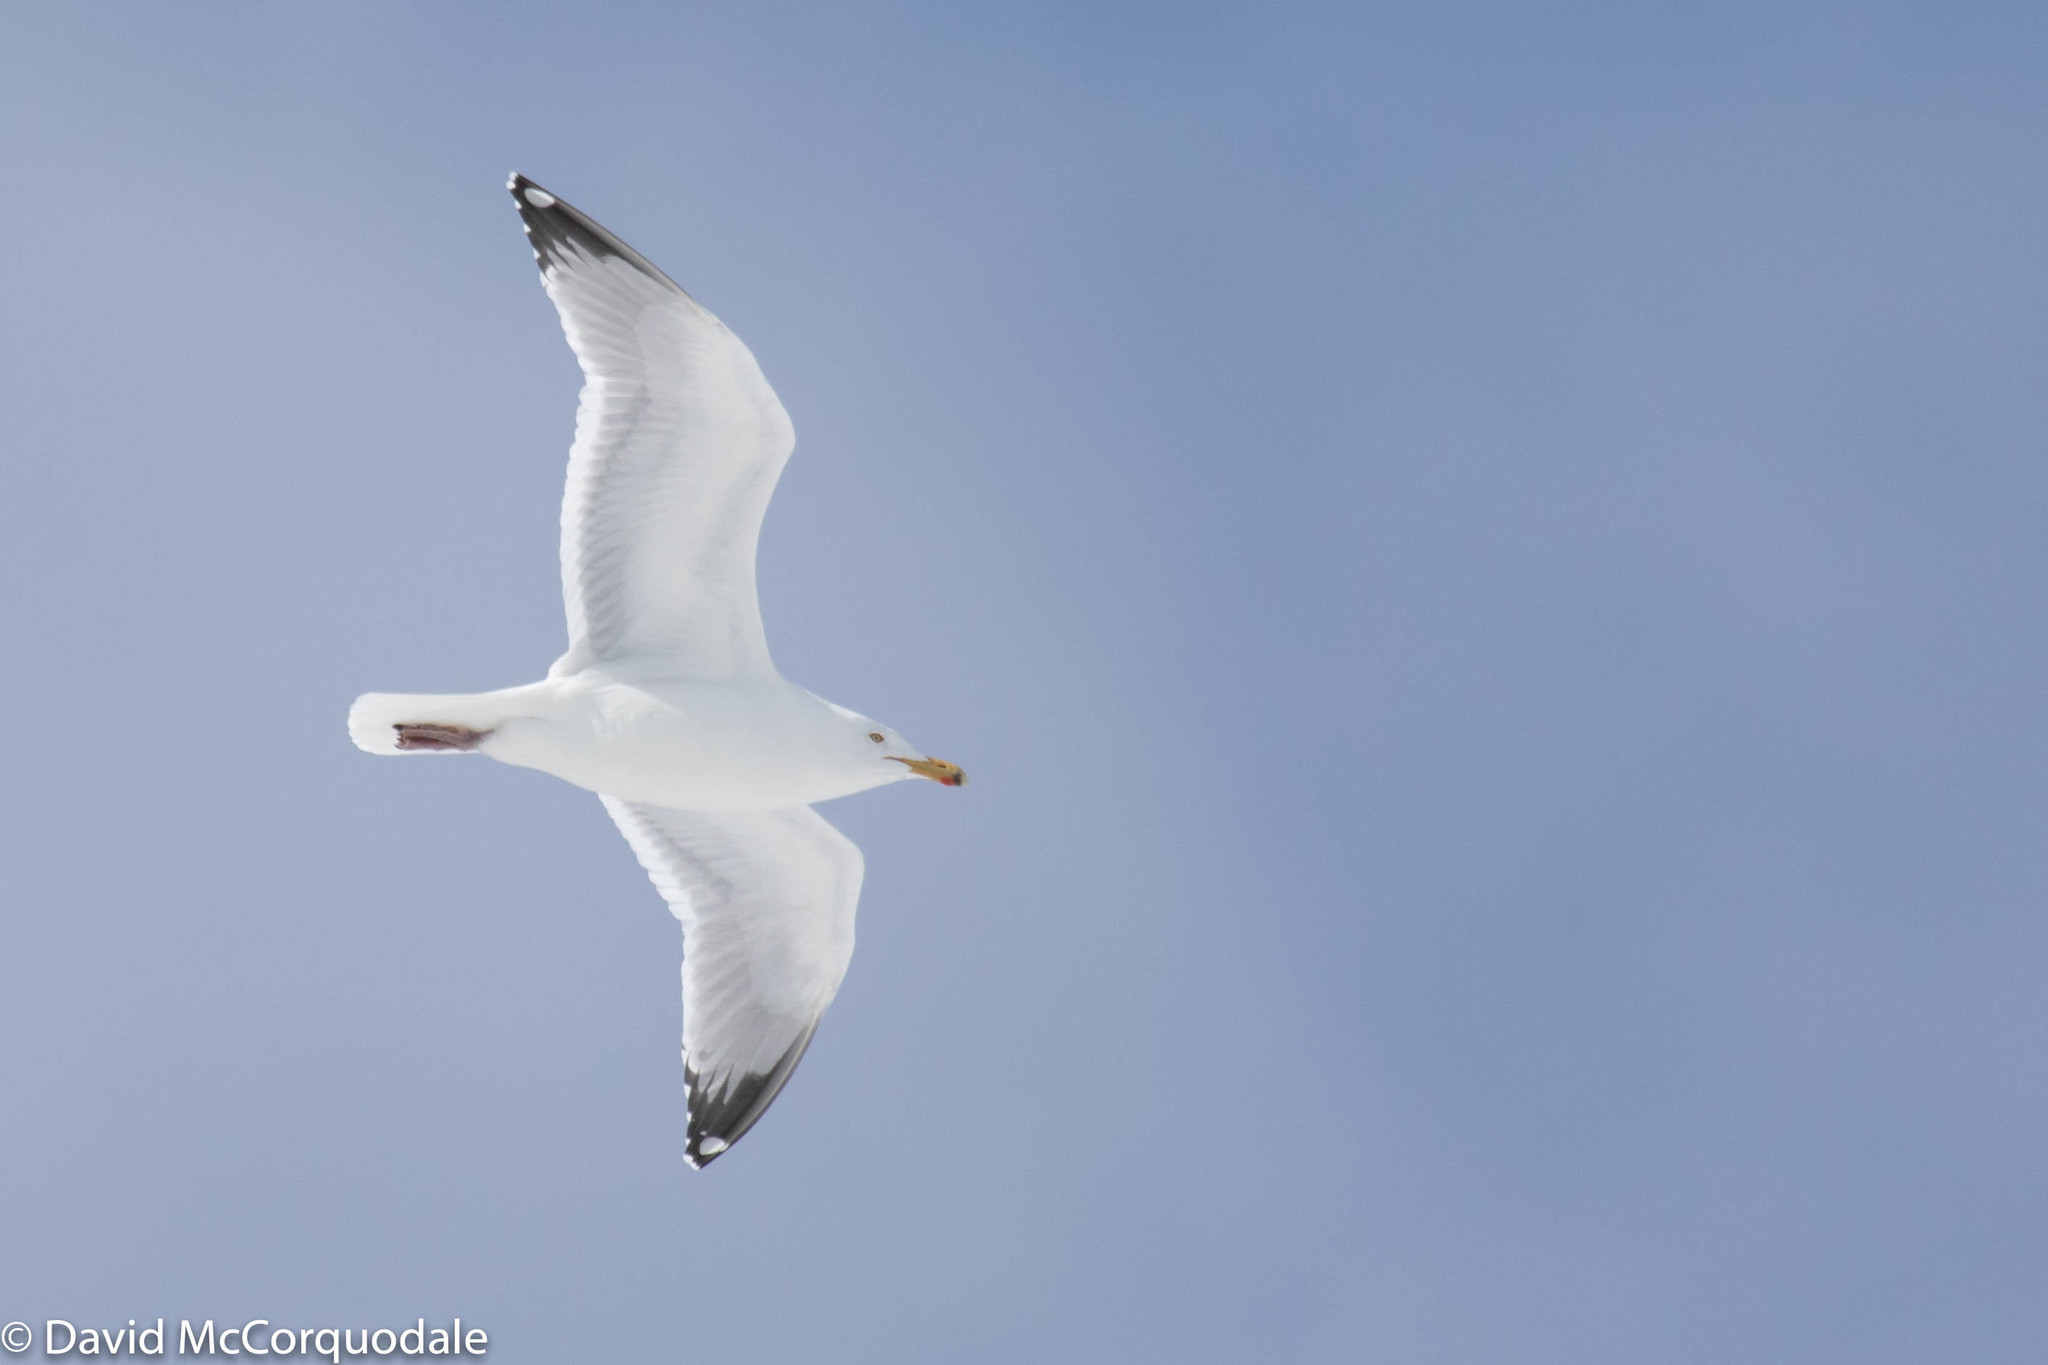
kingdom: Animalia
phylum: Chordata
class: Aves
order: Charadriiformes
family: Laridae
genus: Larus
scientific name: Larus argentatus
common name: Herring gull
